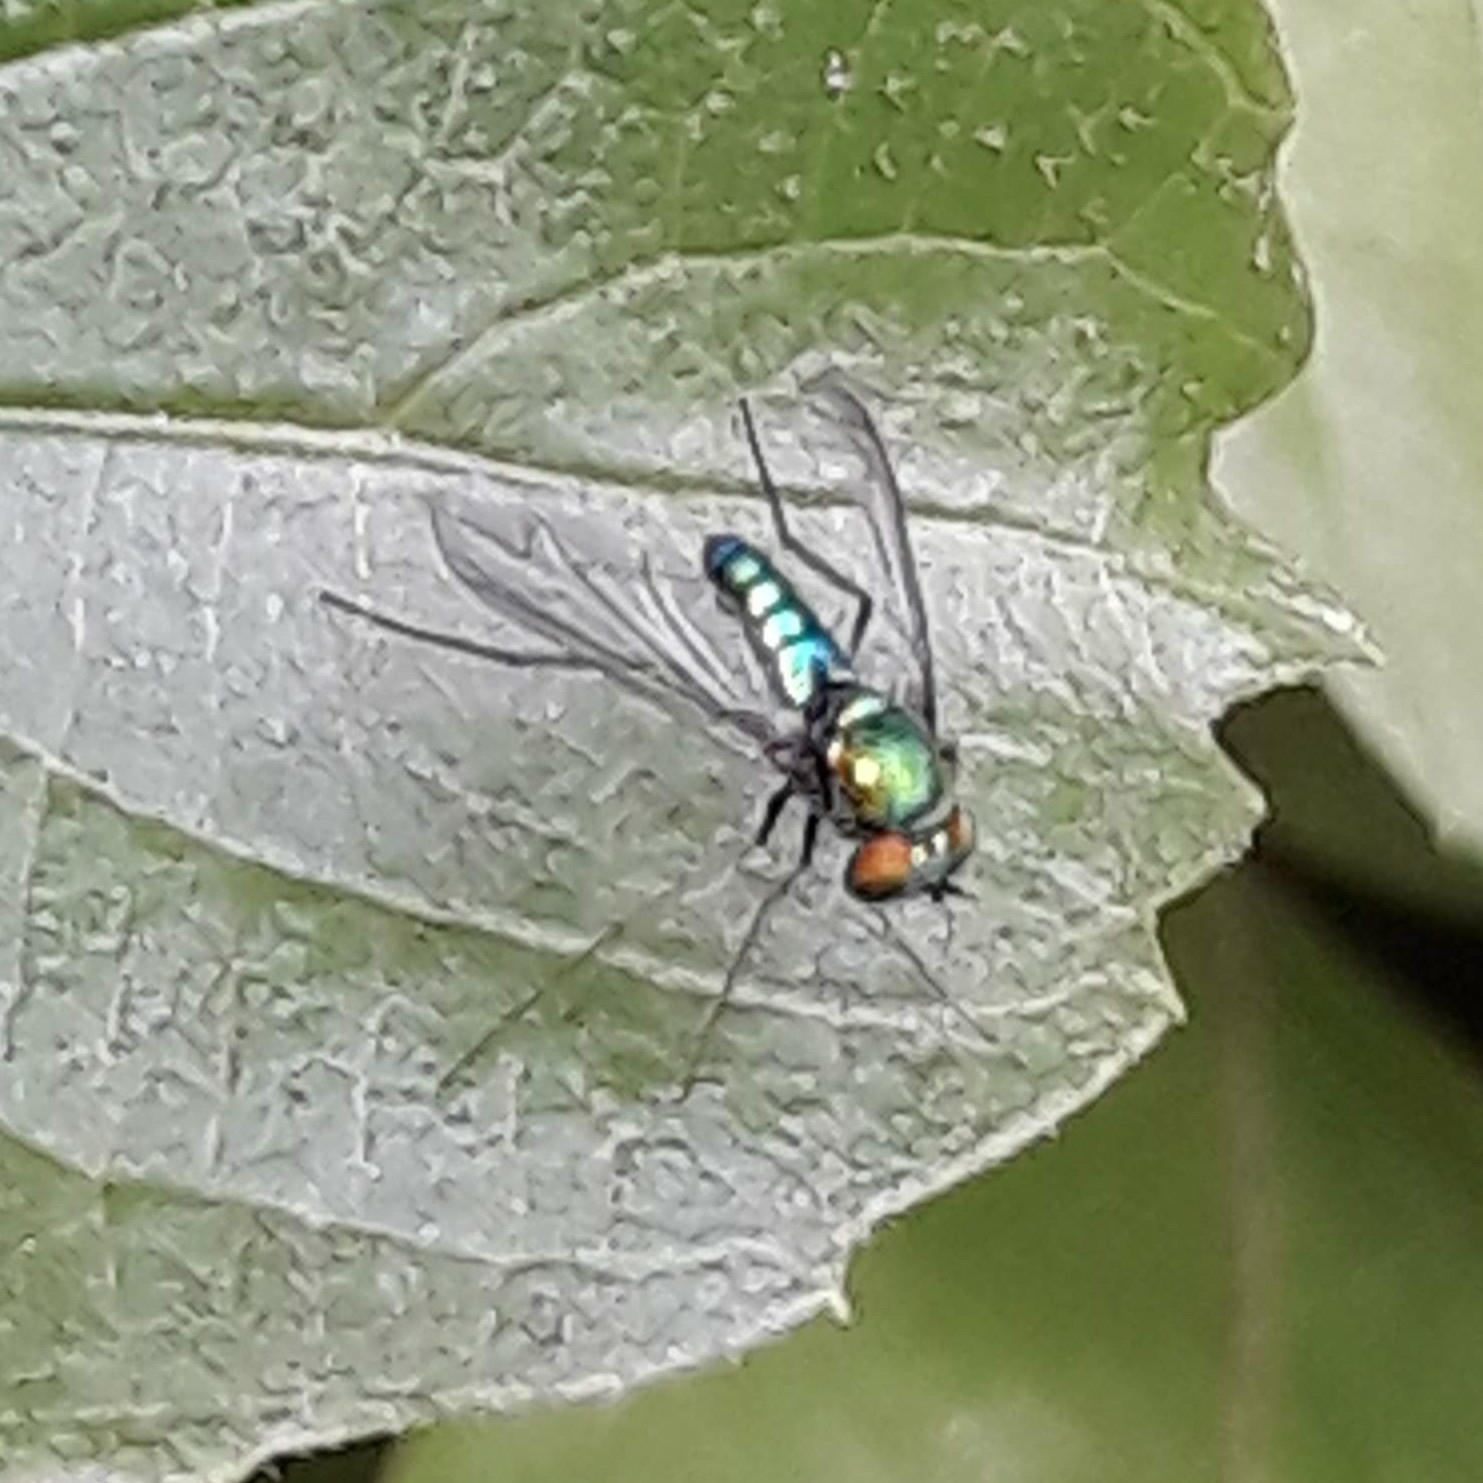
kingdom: Animalia
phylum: Arthropoda
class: Insecta
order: Diptera
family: Dolichopodidae
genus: Condylostylus
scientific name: Condylostylus
